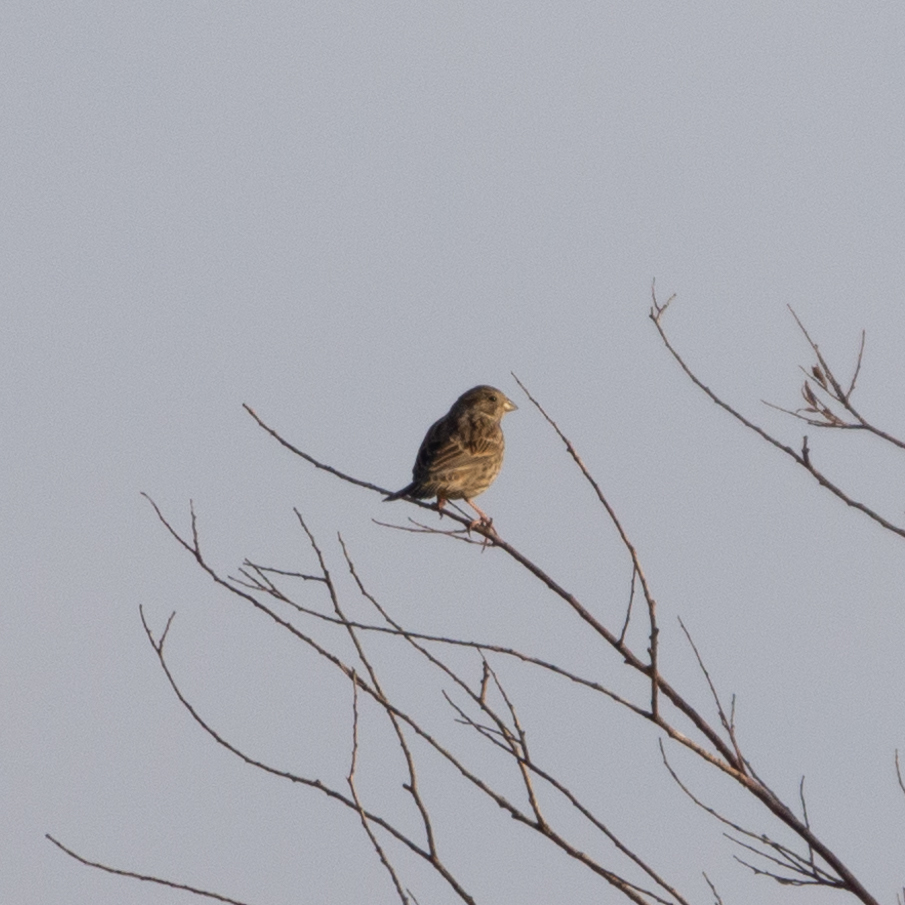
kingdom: Animalia
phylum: Chordata
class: Aves
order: Passeriformes
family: Emberizidae
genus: Emberiza
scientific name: Emberiza calandra
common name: Corn bunting
